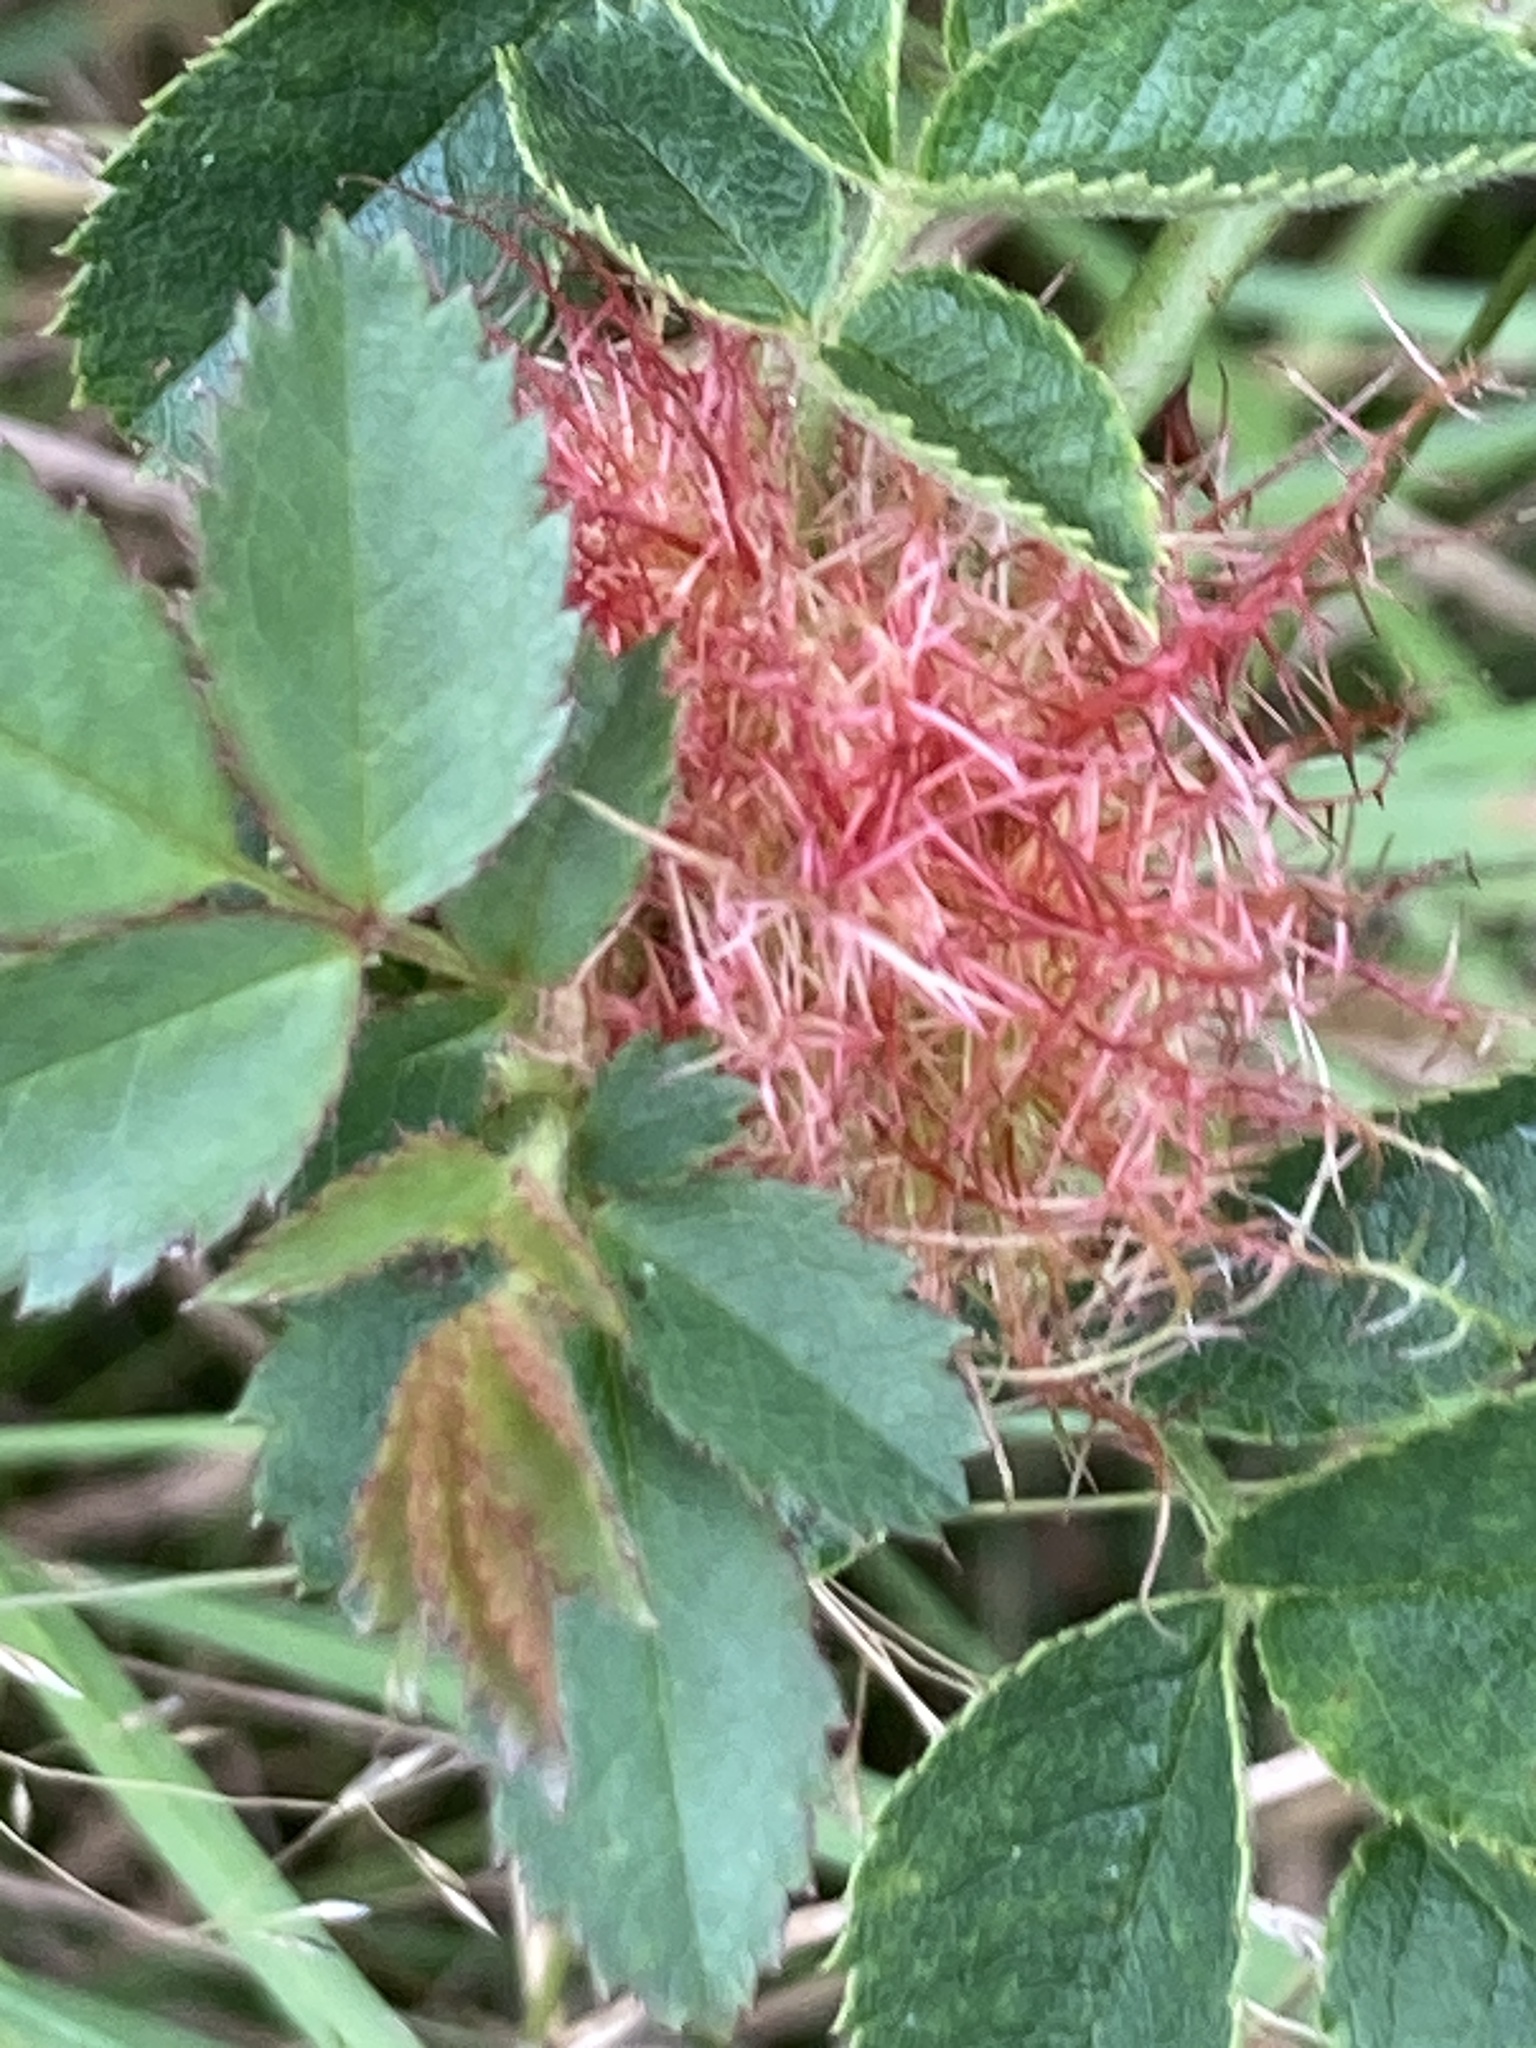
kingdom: Animalia
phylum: Arthropoda
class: Insecta
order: Hymenoptera
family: Cynipidae
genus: Diplolepis
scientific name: Diplolepis rosae
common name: Bedeguar gall
